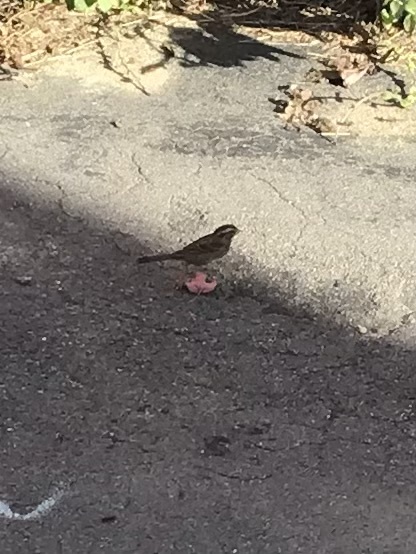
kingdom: Animalia
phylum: Chordata
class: Aves
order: Passeriformes
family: Passerellidae
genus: Zonotrichia
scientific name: Zonotrichia albicollis
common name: White-throated sparrow
